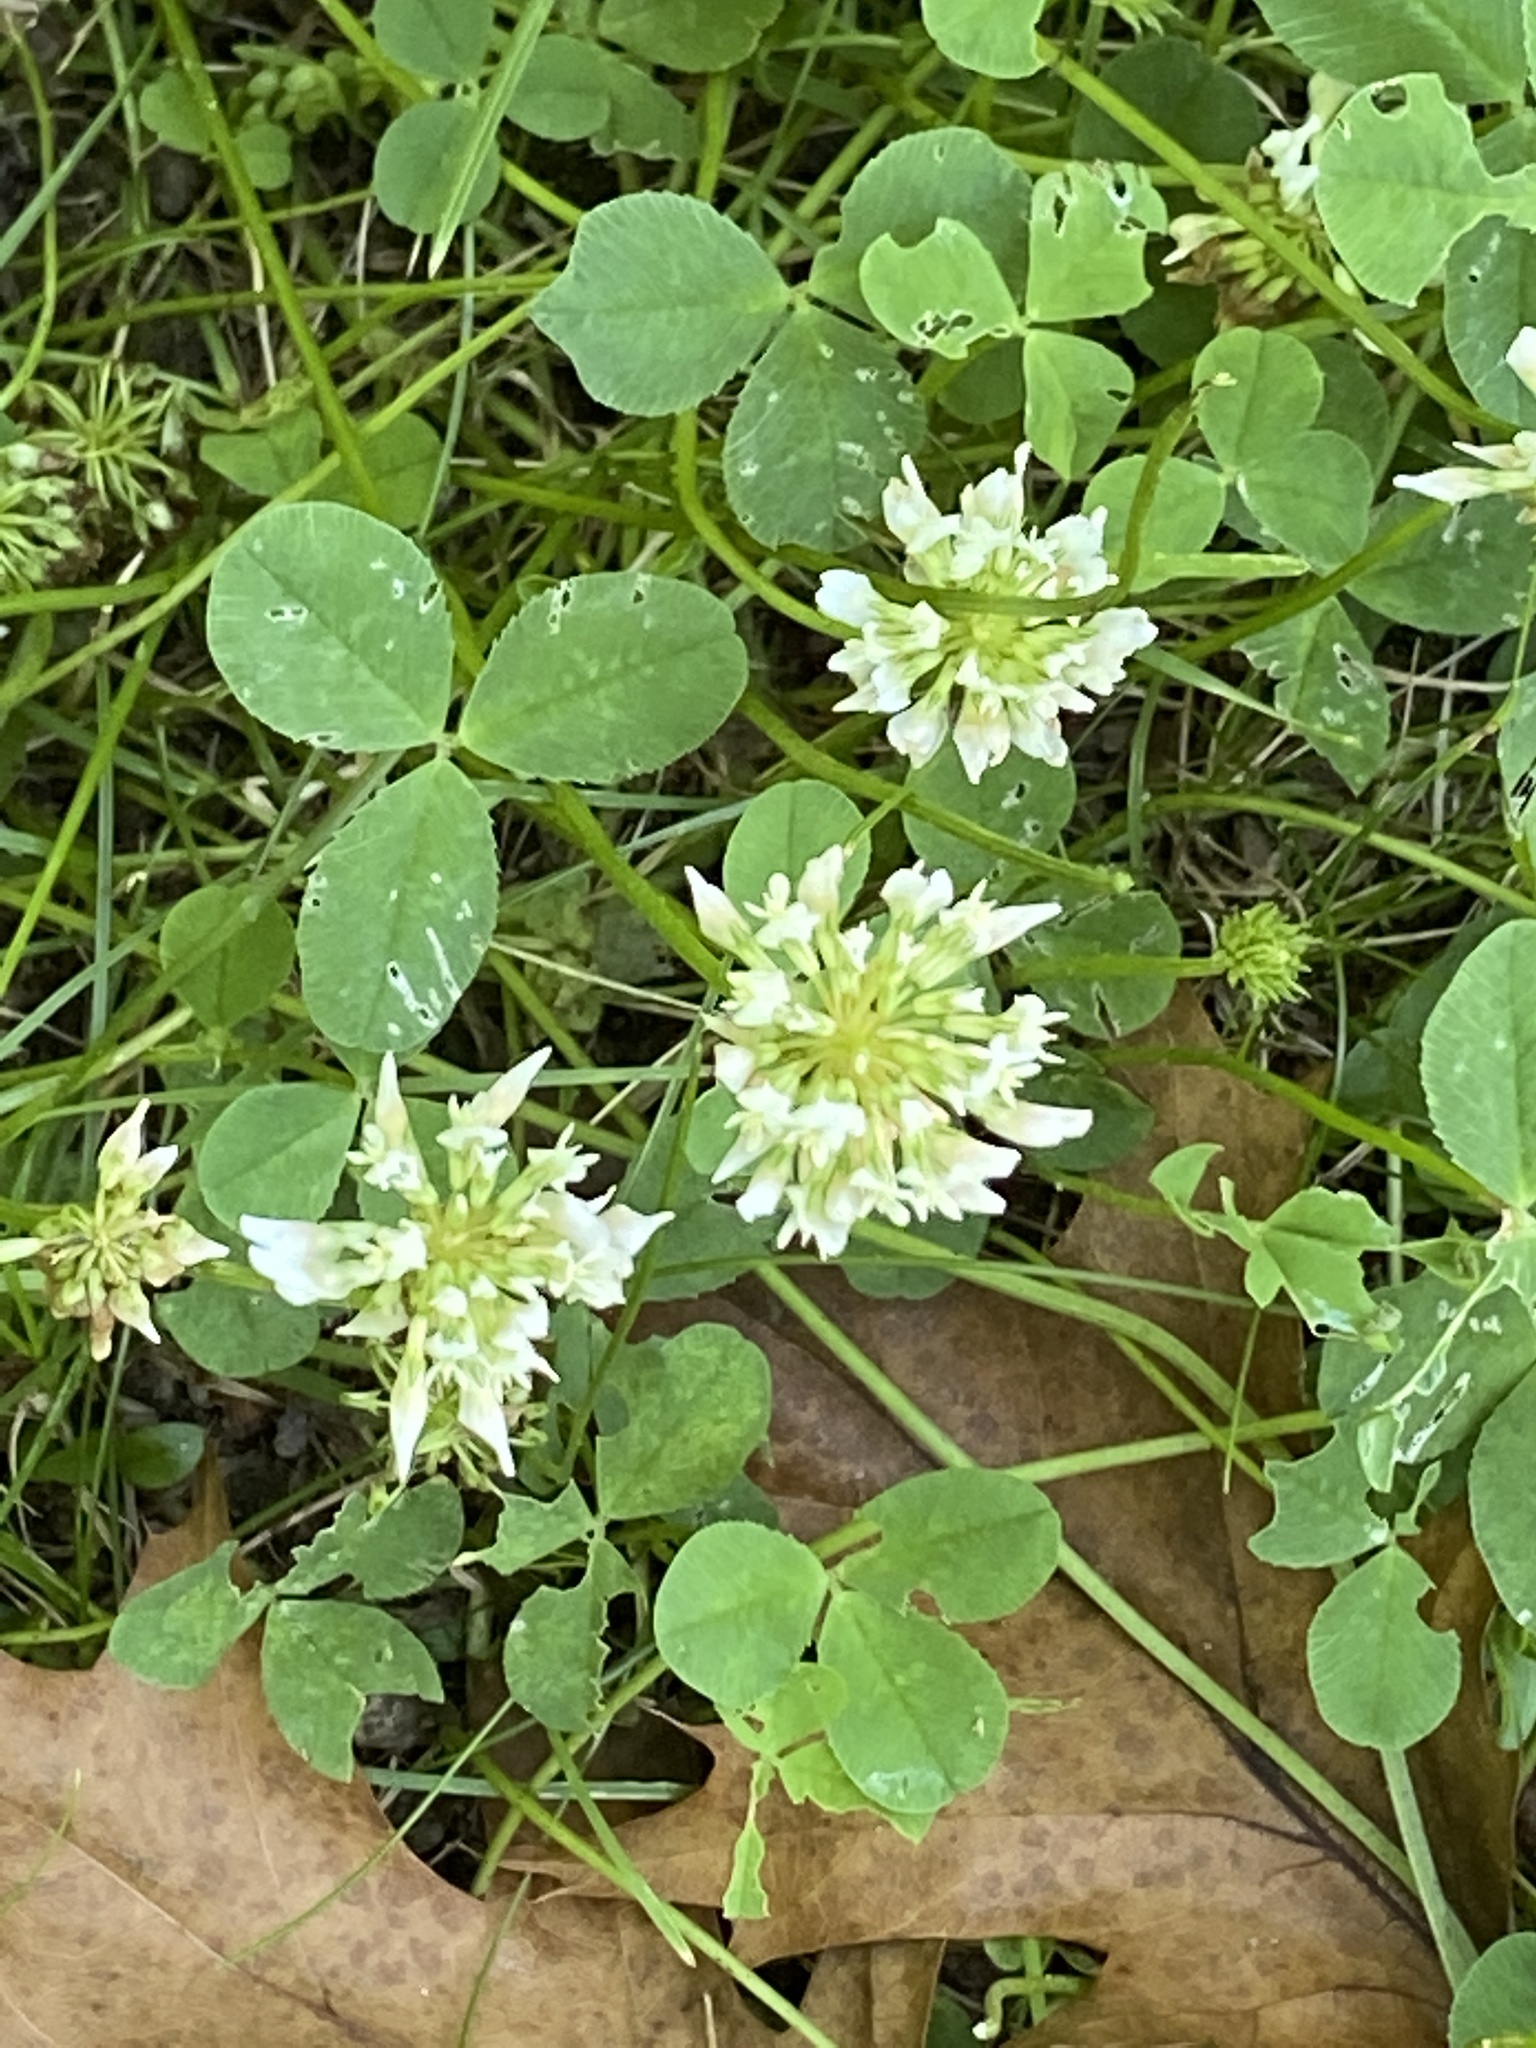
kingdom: Plantae
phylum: Tracheophyta
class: Magnoliopsida
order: Fabales
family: Fabaceae
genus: Trifolium
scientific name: Trifolium repens
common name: White clover
